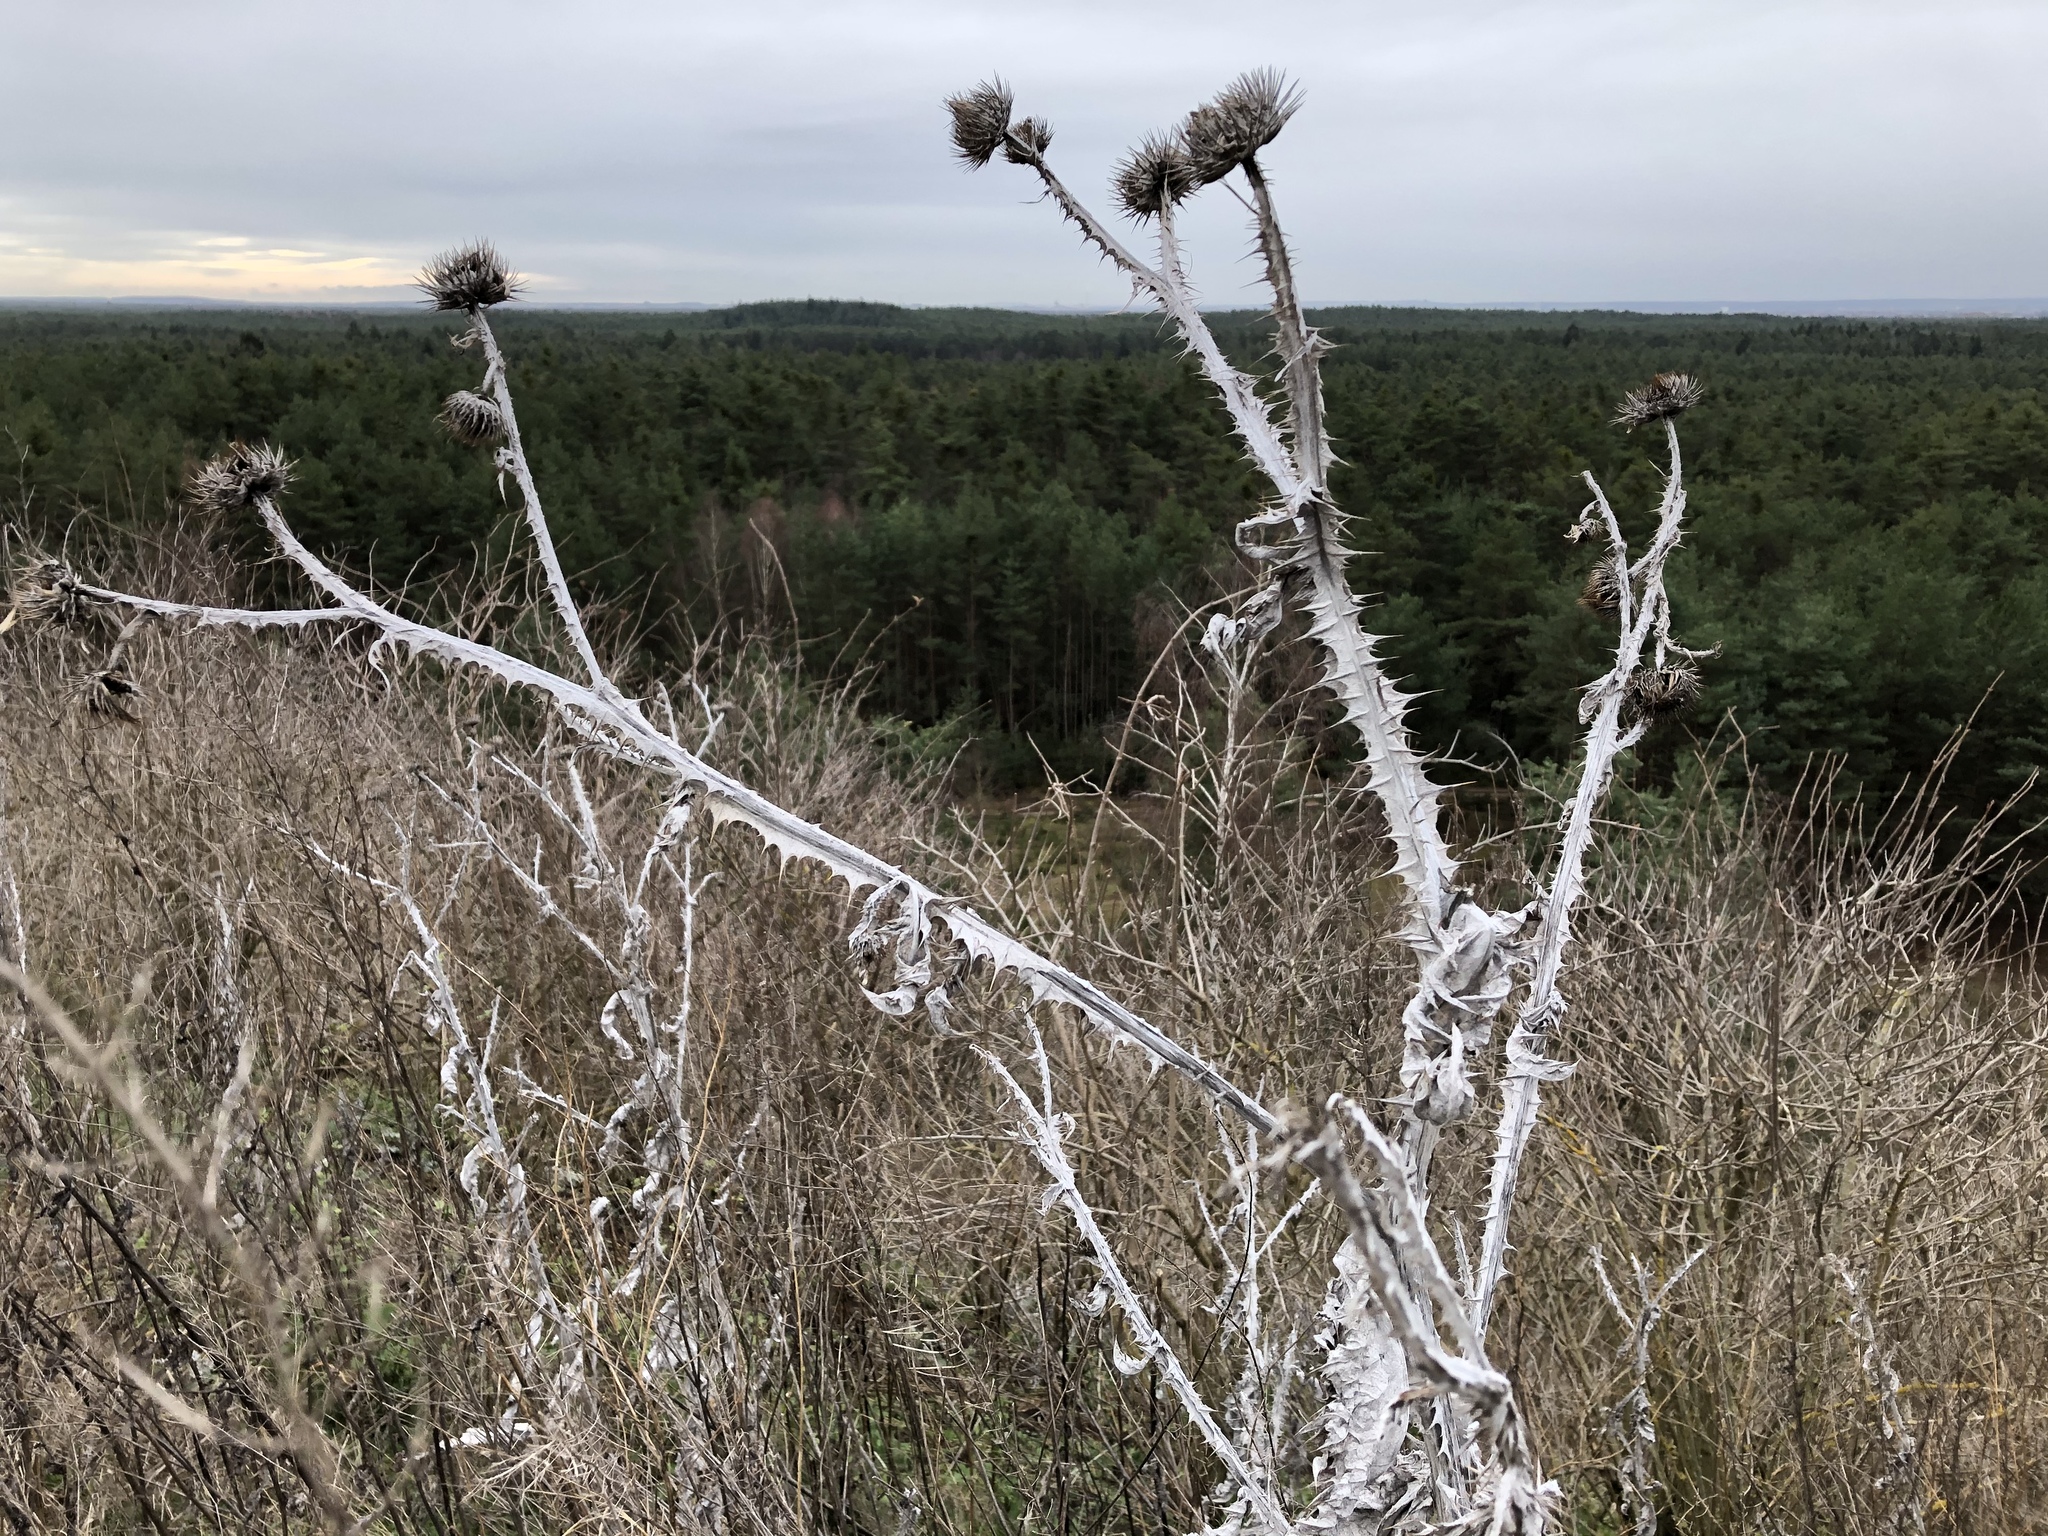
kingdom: Plantae
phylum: Tracheophyta
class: Magnoliopsida
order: Asterales
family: Asteraceae
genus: Onopordum
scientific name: Onopordum acanthium
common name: Scotch thistle
